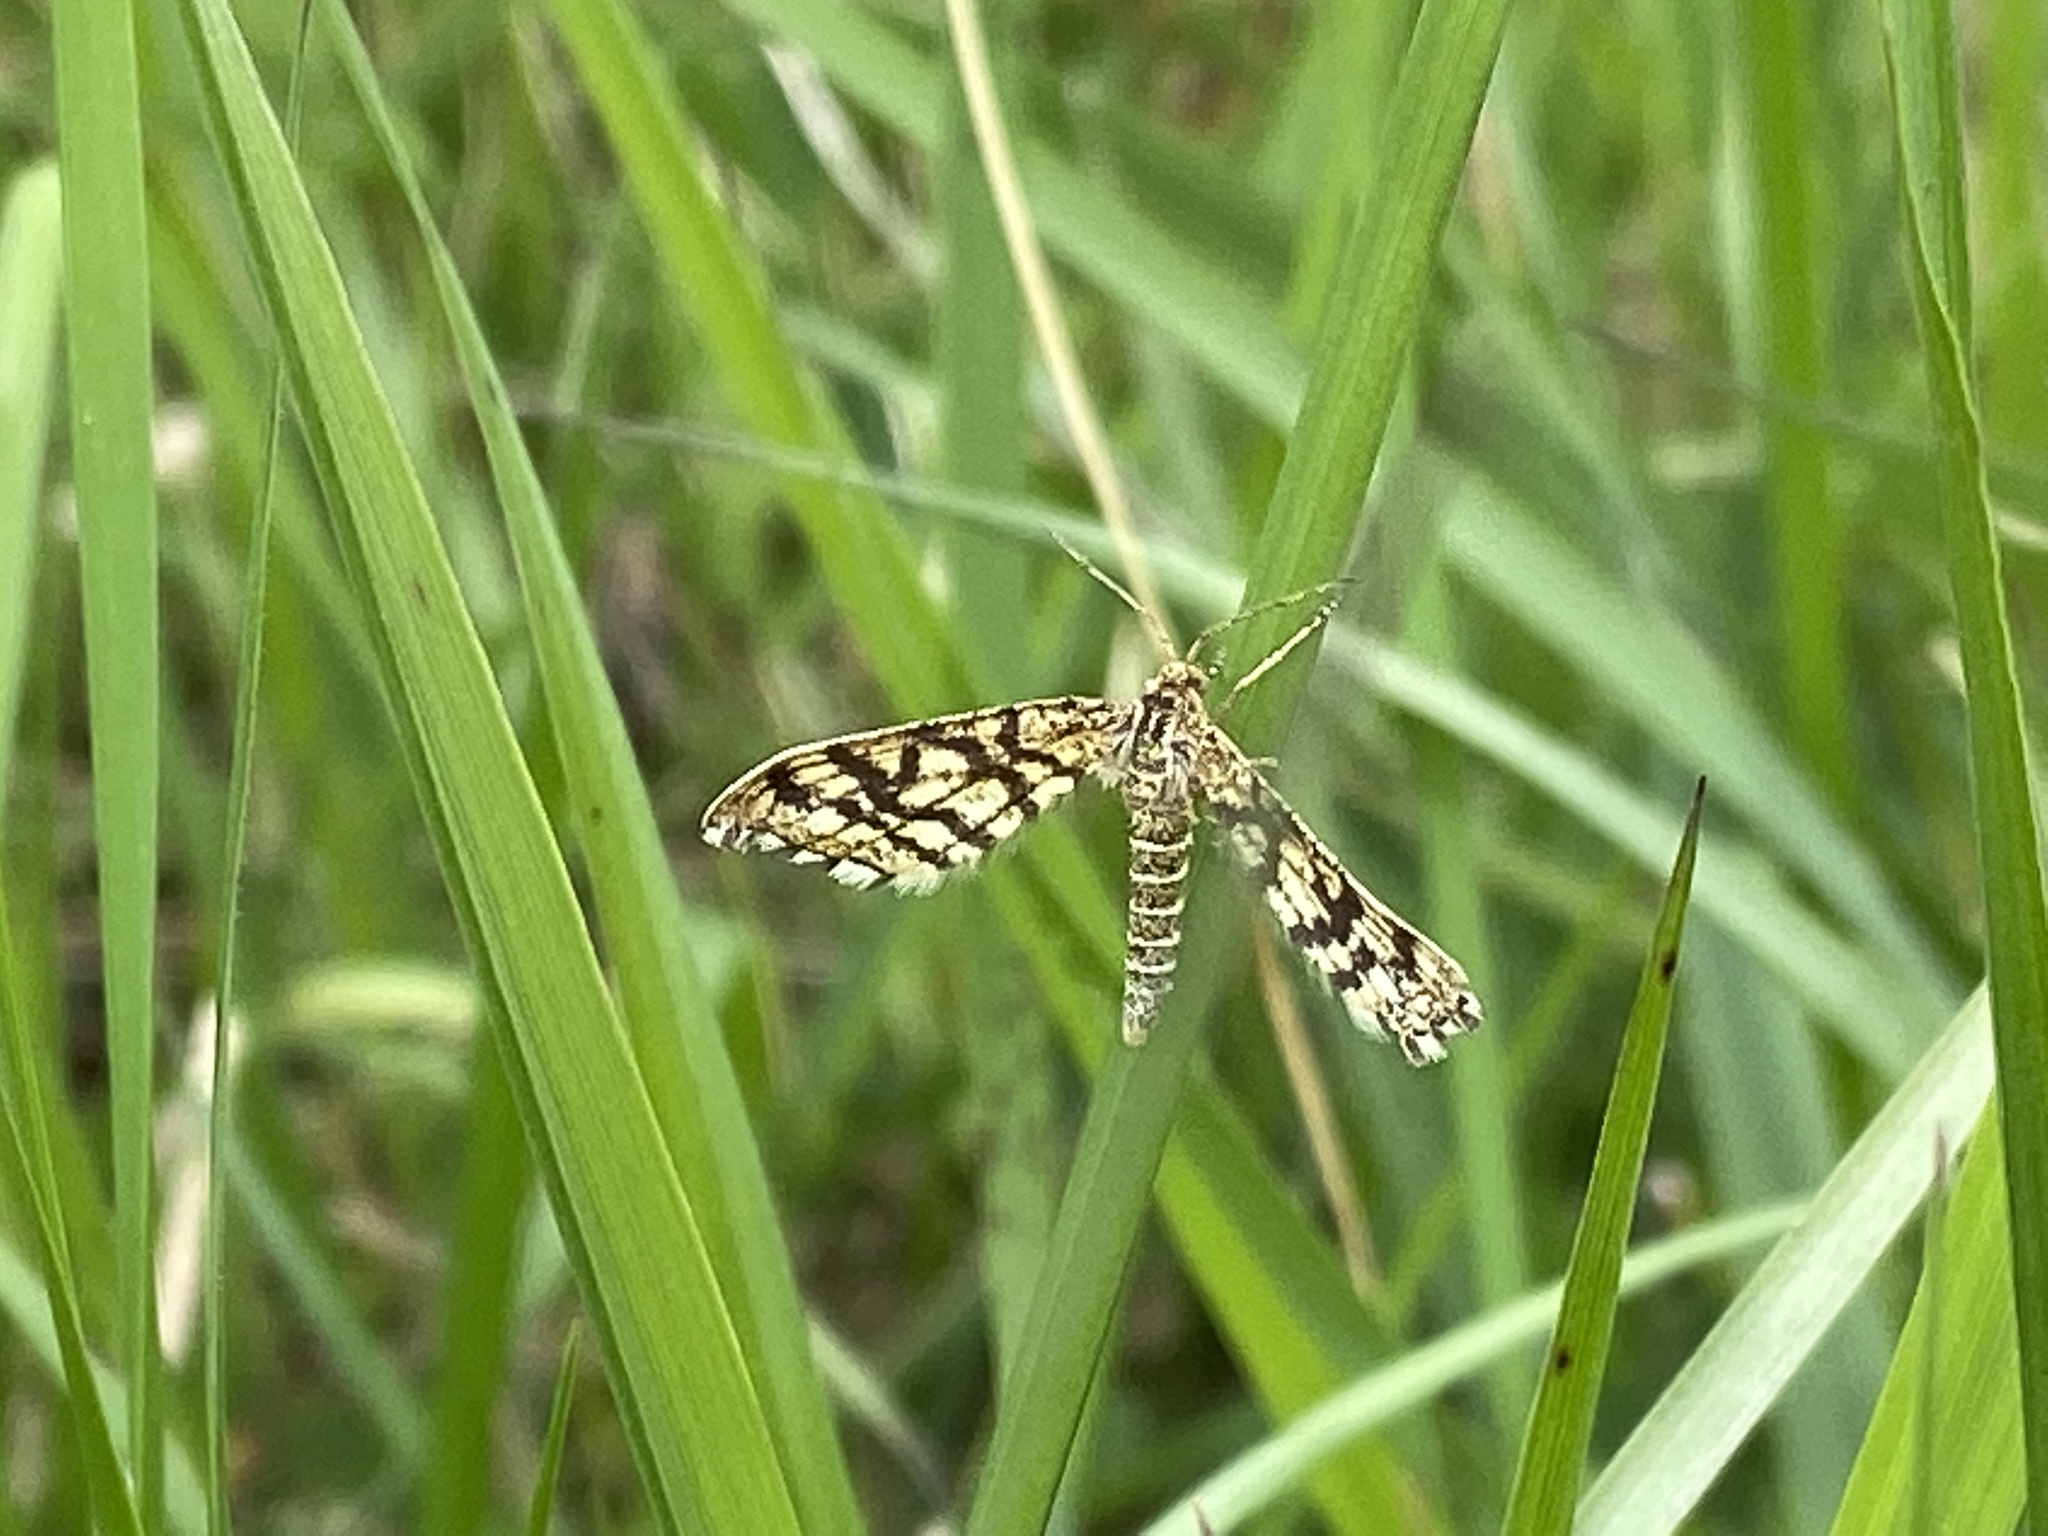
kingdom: Animalia
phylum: Arthropoda
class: Insecta
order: Lepidoptera
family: Geometridae
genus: Chiasmia
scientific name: Chiasmia clathrata
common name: Latticed heath
